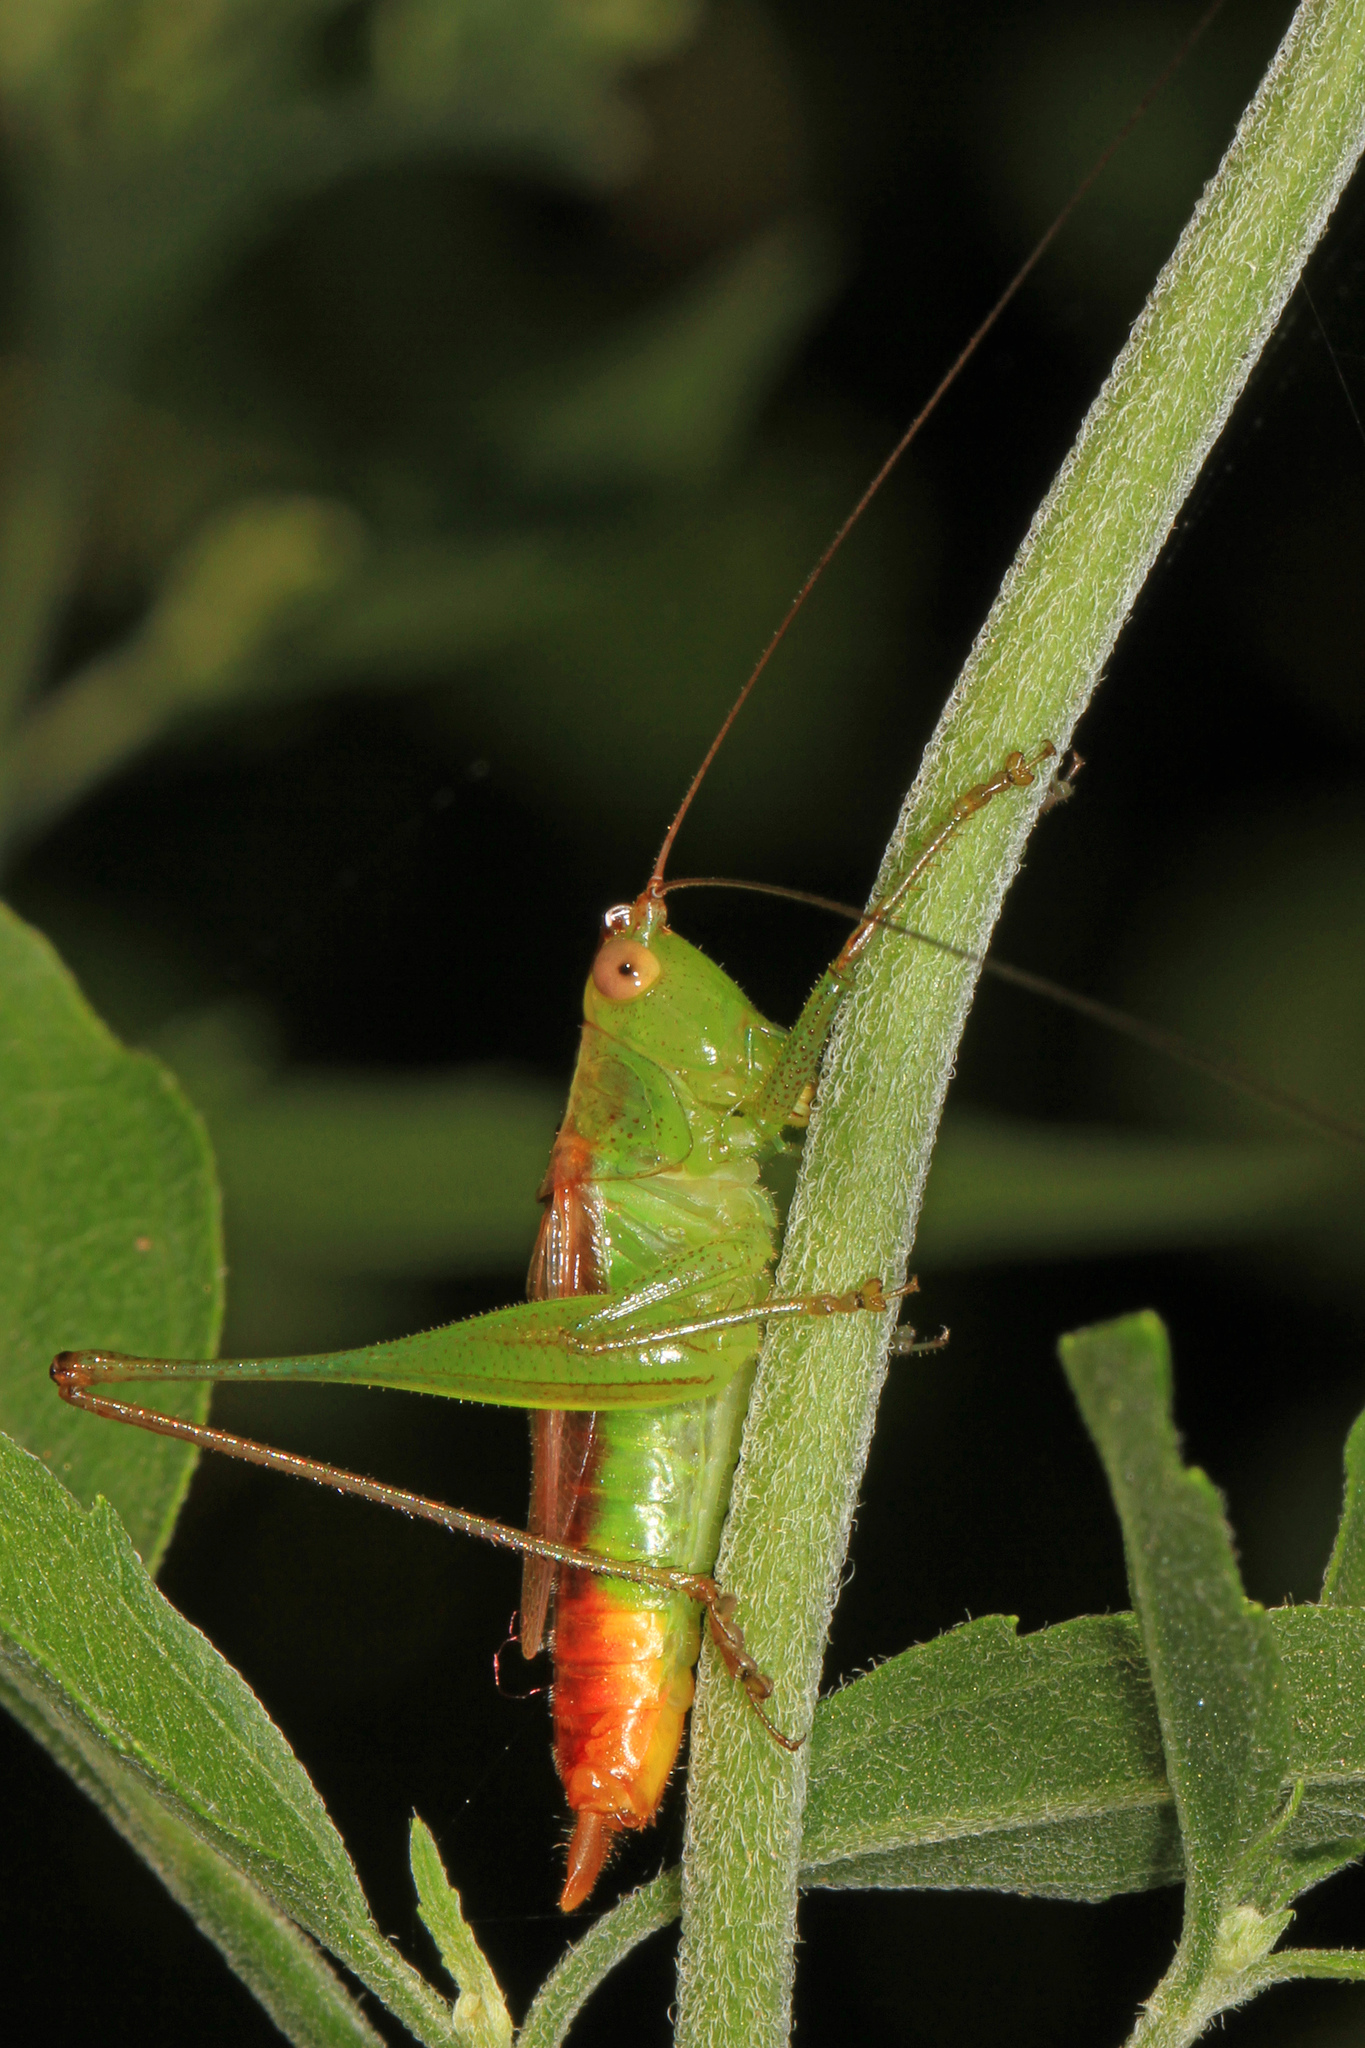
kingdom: Animalia
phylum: Arthropoda
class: Insecta
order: Orthoptera
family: Tettigoniidae
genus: Conocephalus
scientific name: Conocephalus brevipennis
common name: Short-winged meadow katydid
